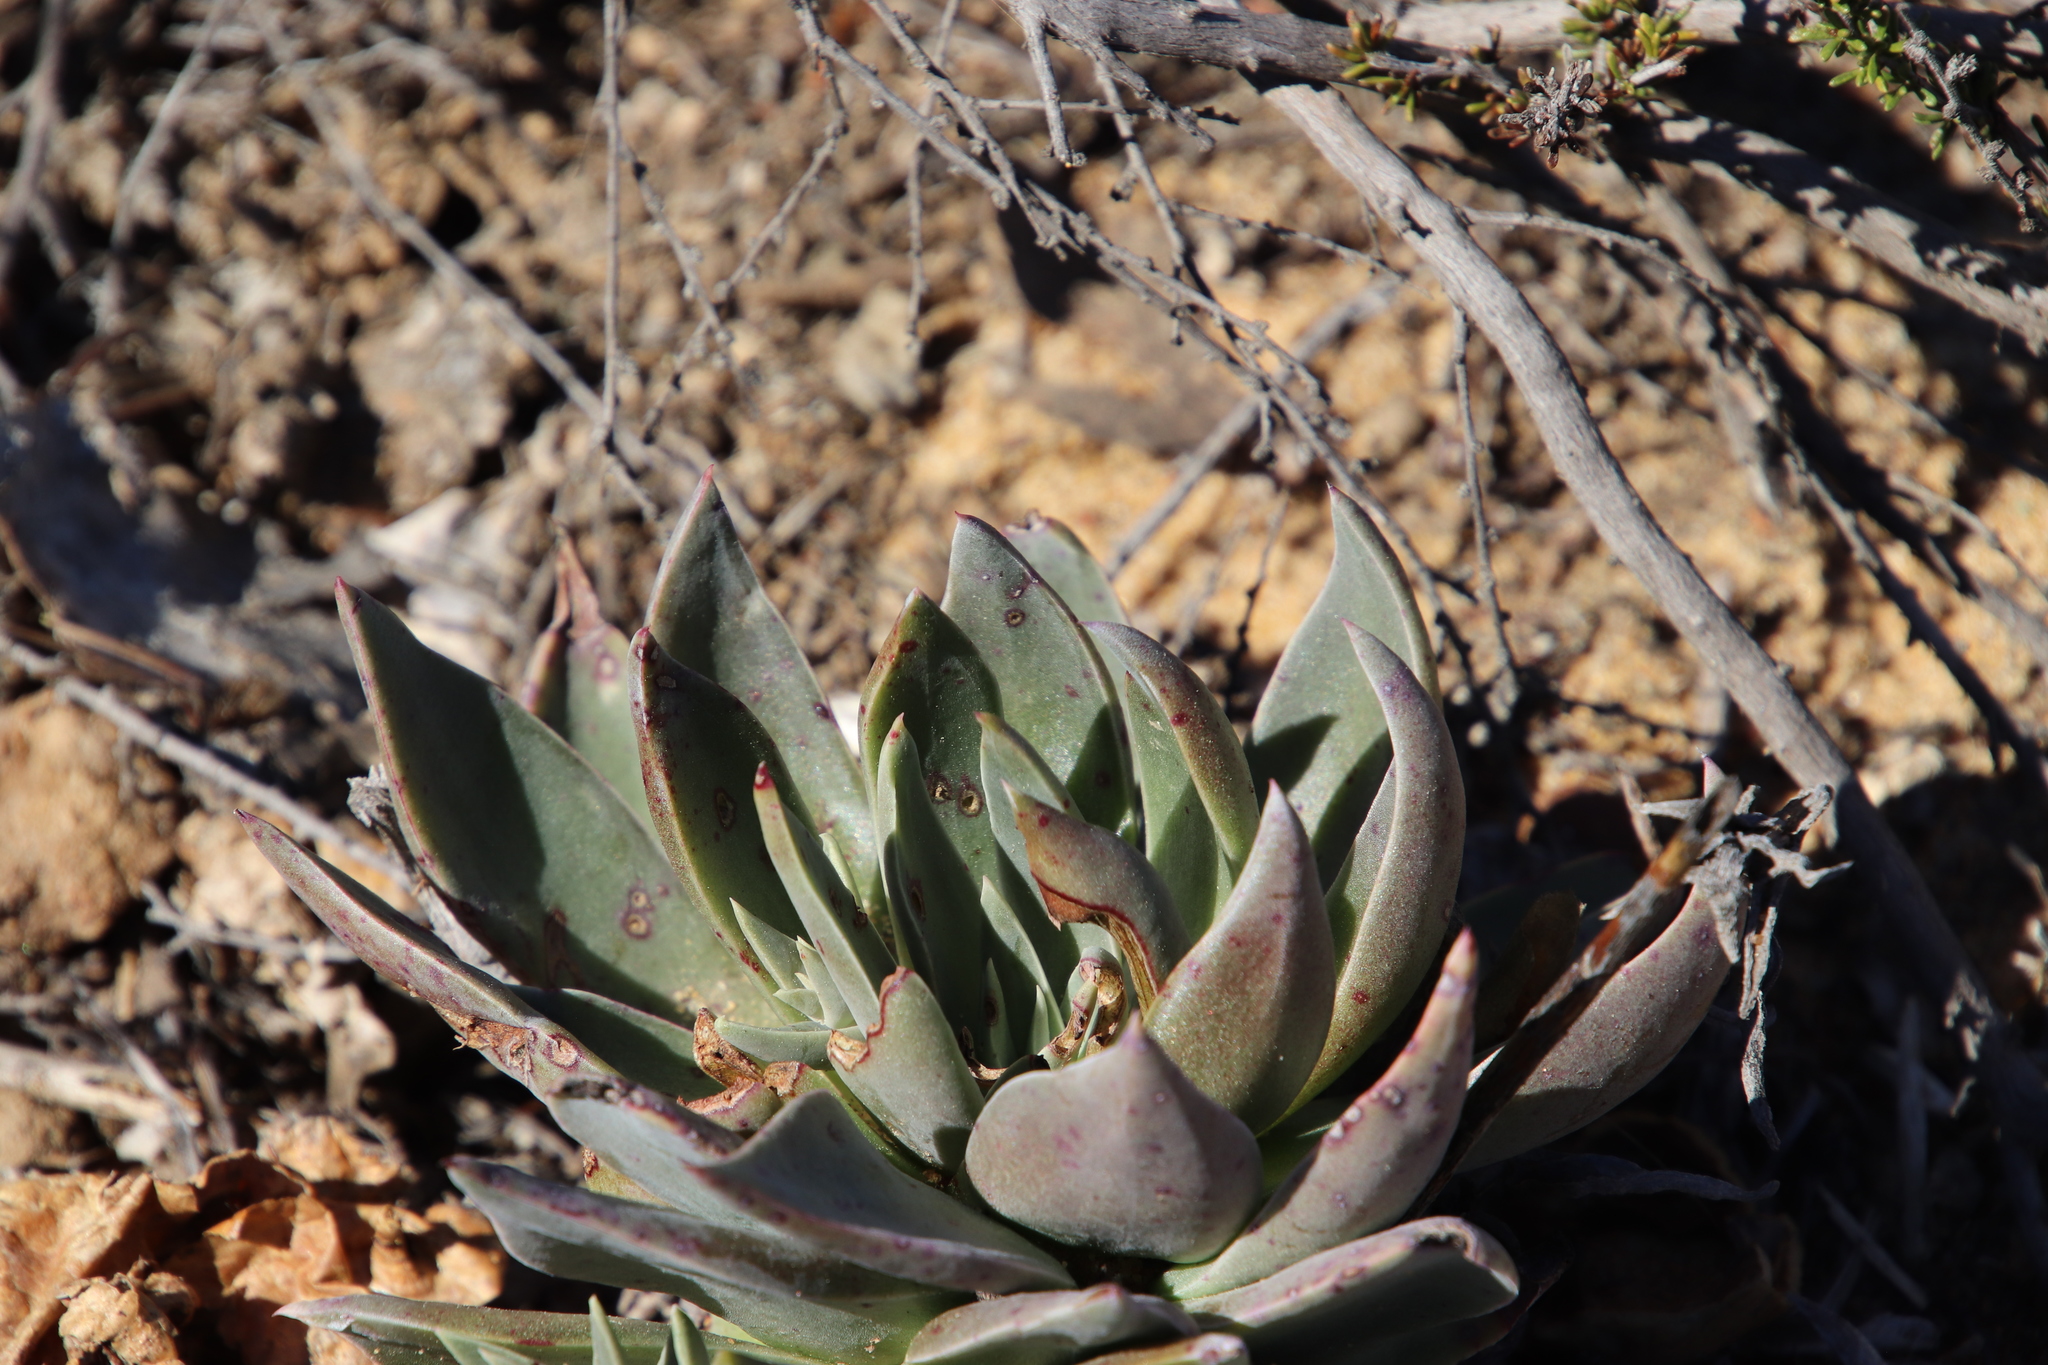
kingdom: Plantae
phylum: Tracheophyta
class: Magnoliopsida
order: Saxifragales
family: Crassulaceae
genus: Dudleya
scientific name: Dudleya lanceolata
